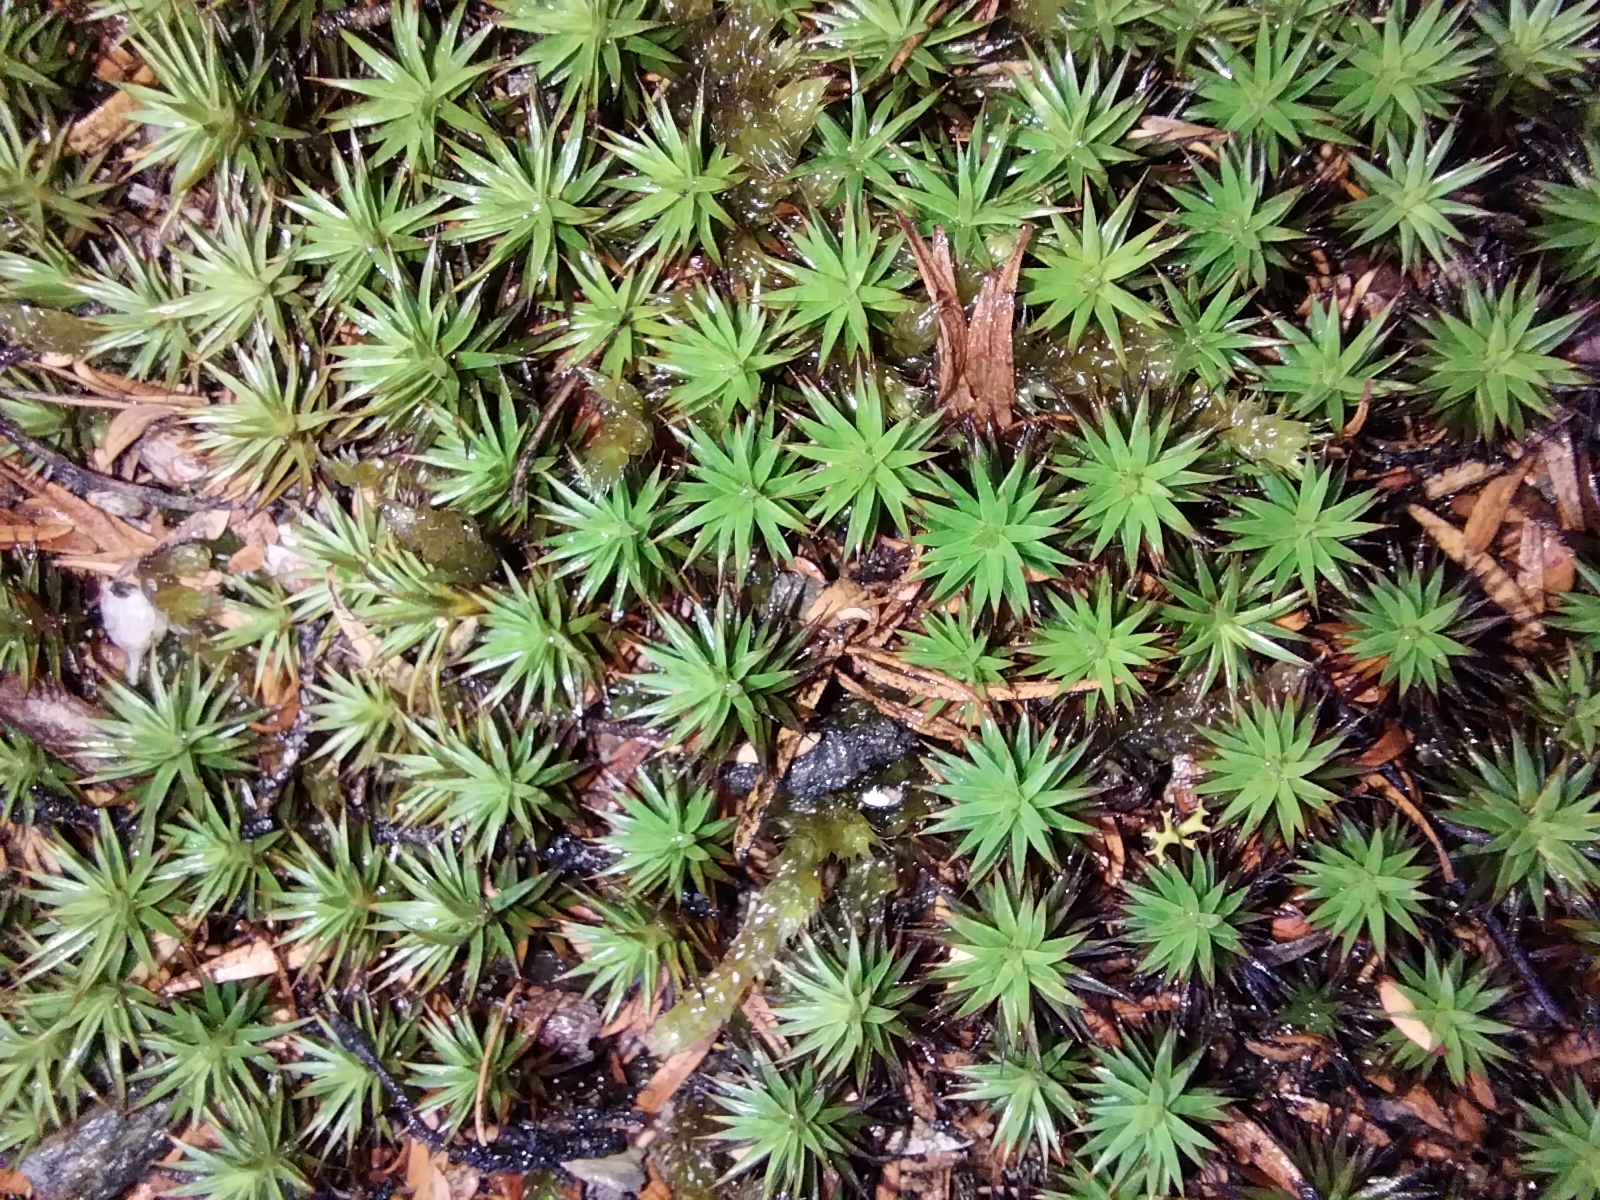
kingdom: Plantae
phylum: Bryophyta
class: Polytrichopsida
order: Polytrichales
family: Polytrichaceae
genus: Polytrichum
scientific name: Polytrichum juniperinum
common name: Juniper haircap moss
